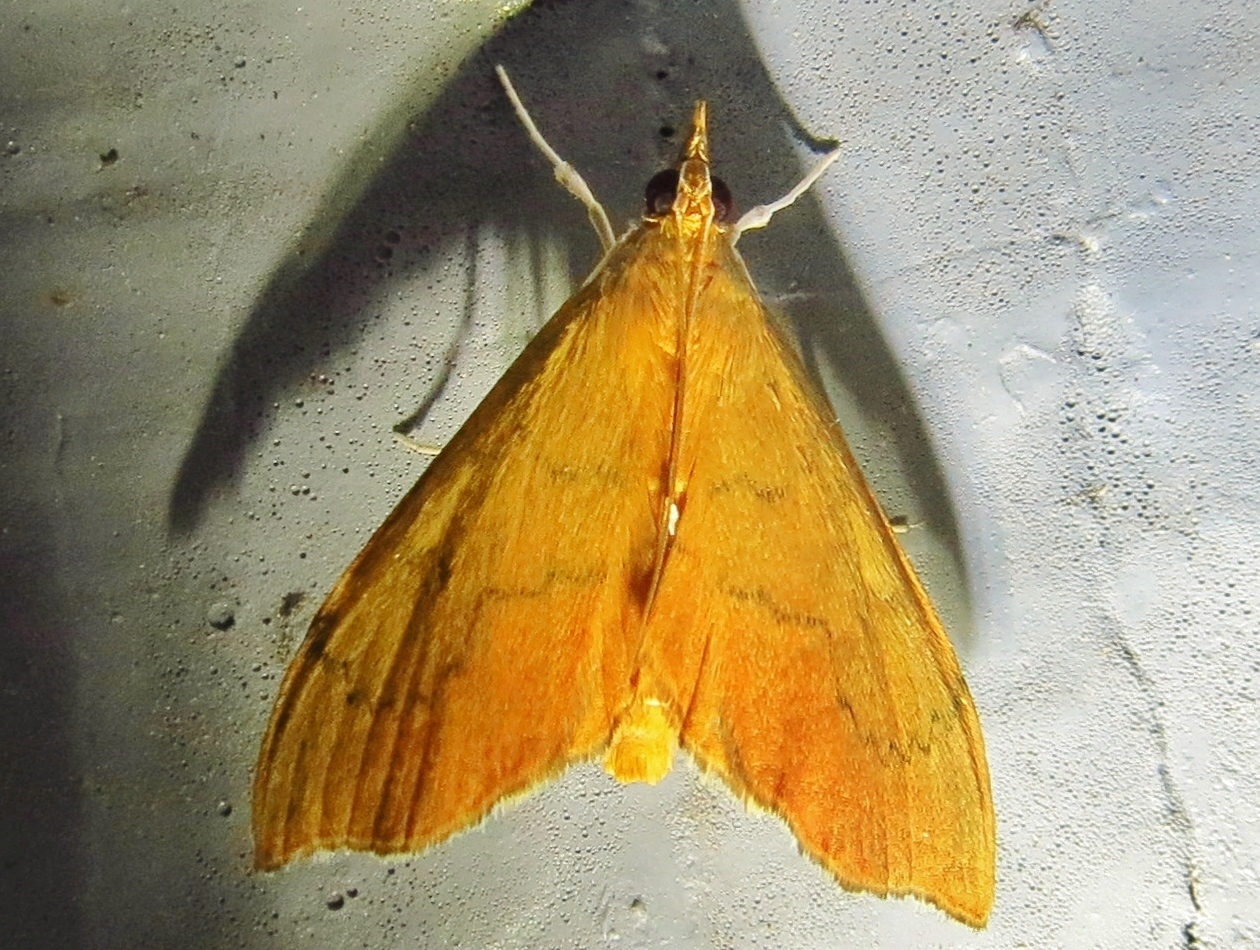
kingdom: Animalia
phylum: Arthropoda
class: Insecta
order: Lepidoptera
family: Crambidae
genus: Sericoplaga
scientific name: Sericoplaga externalis
